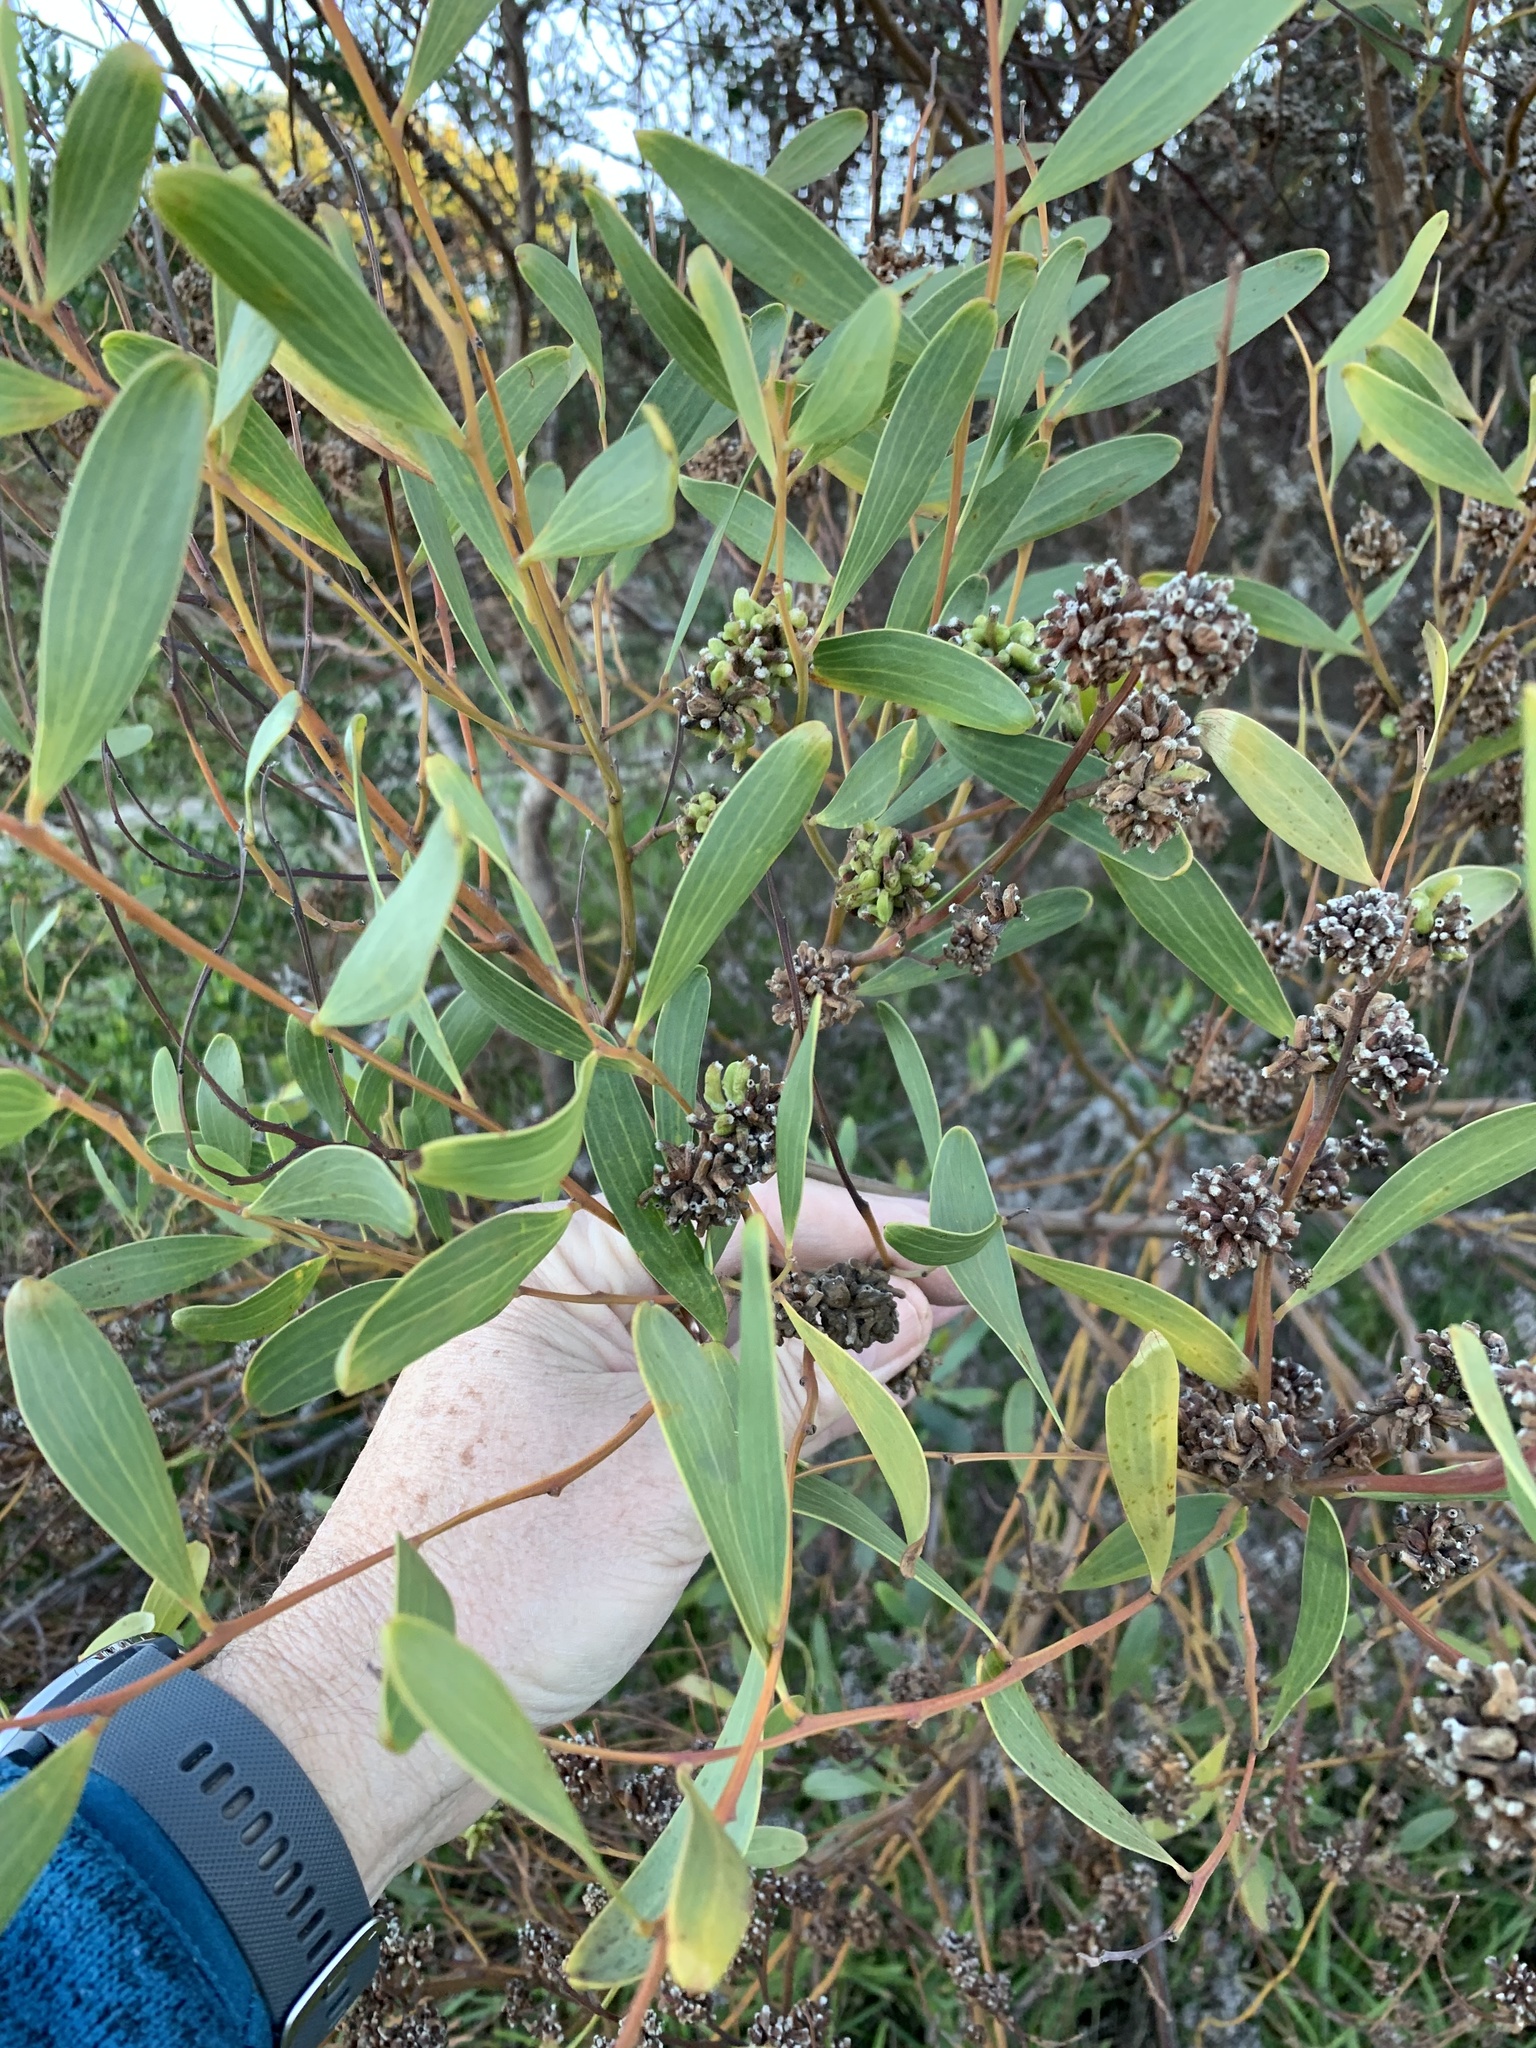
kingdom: Animalia
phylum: Arthropoda
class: Insecta
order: Diptera
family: Cecidomyiidae
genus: Dasineura
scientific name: Dasineura dielsi
